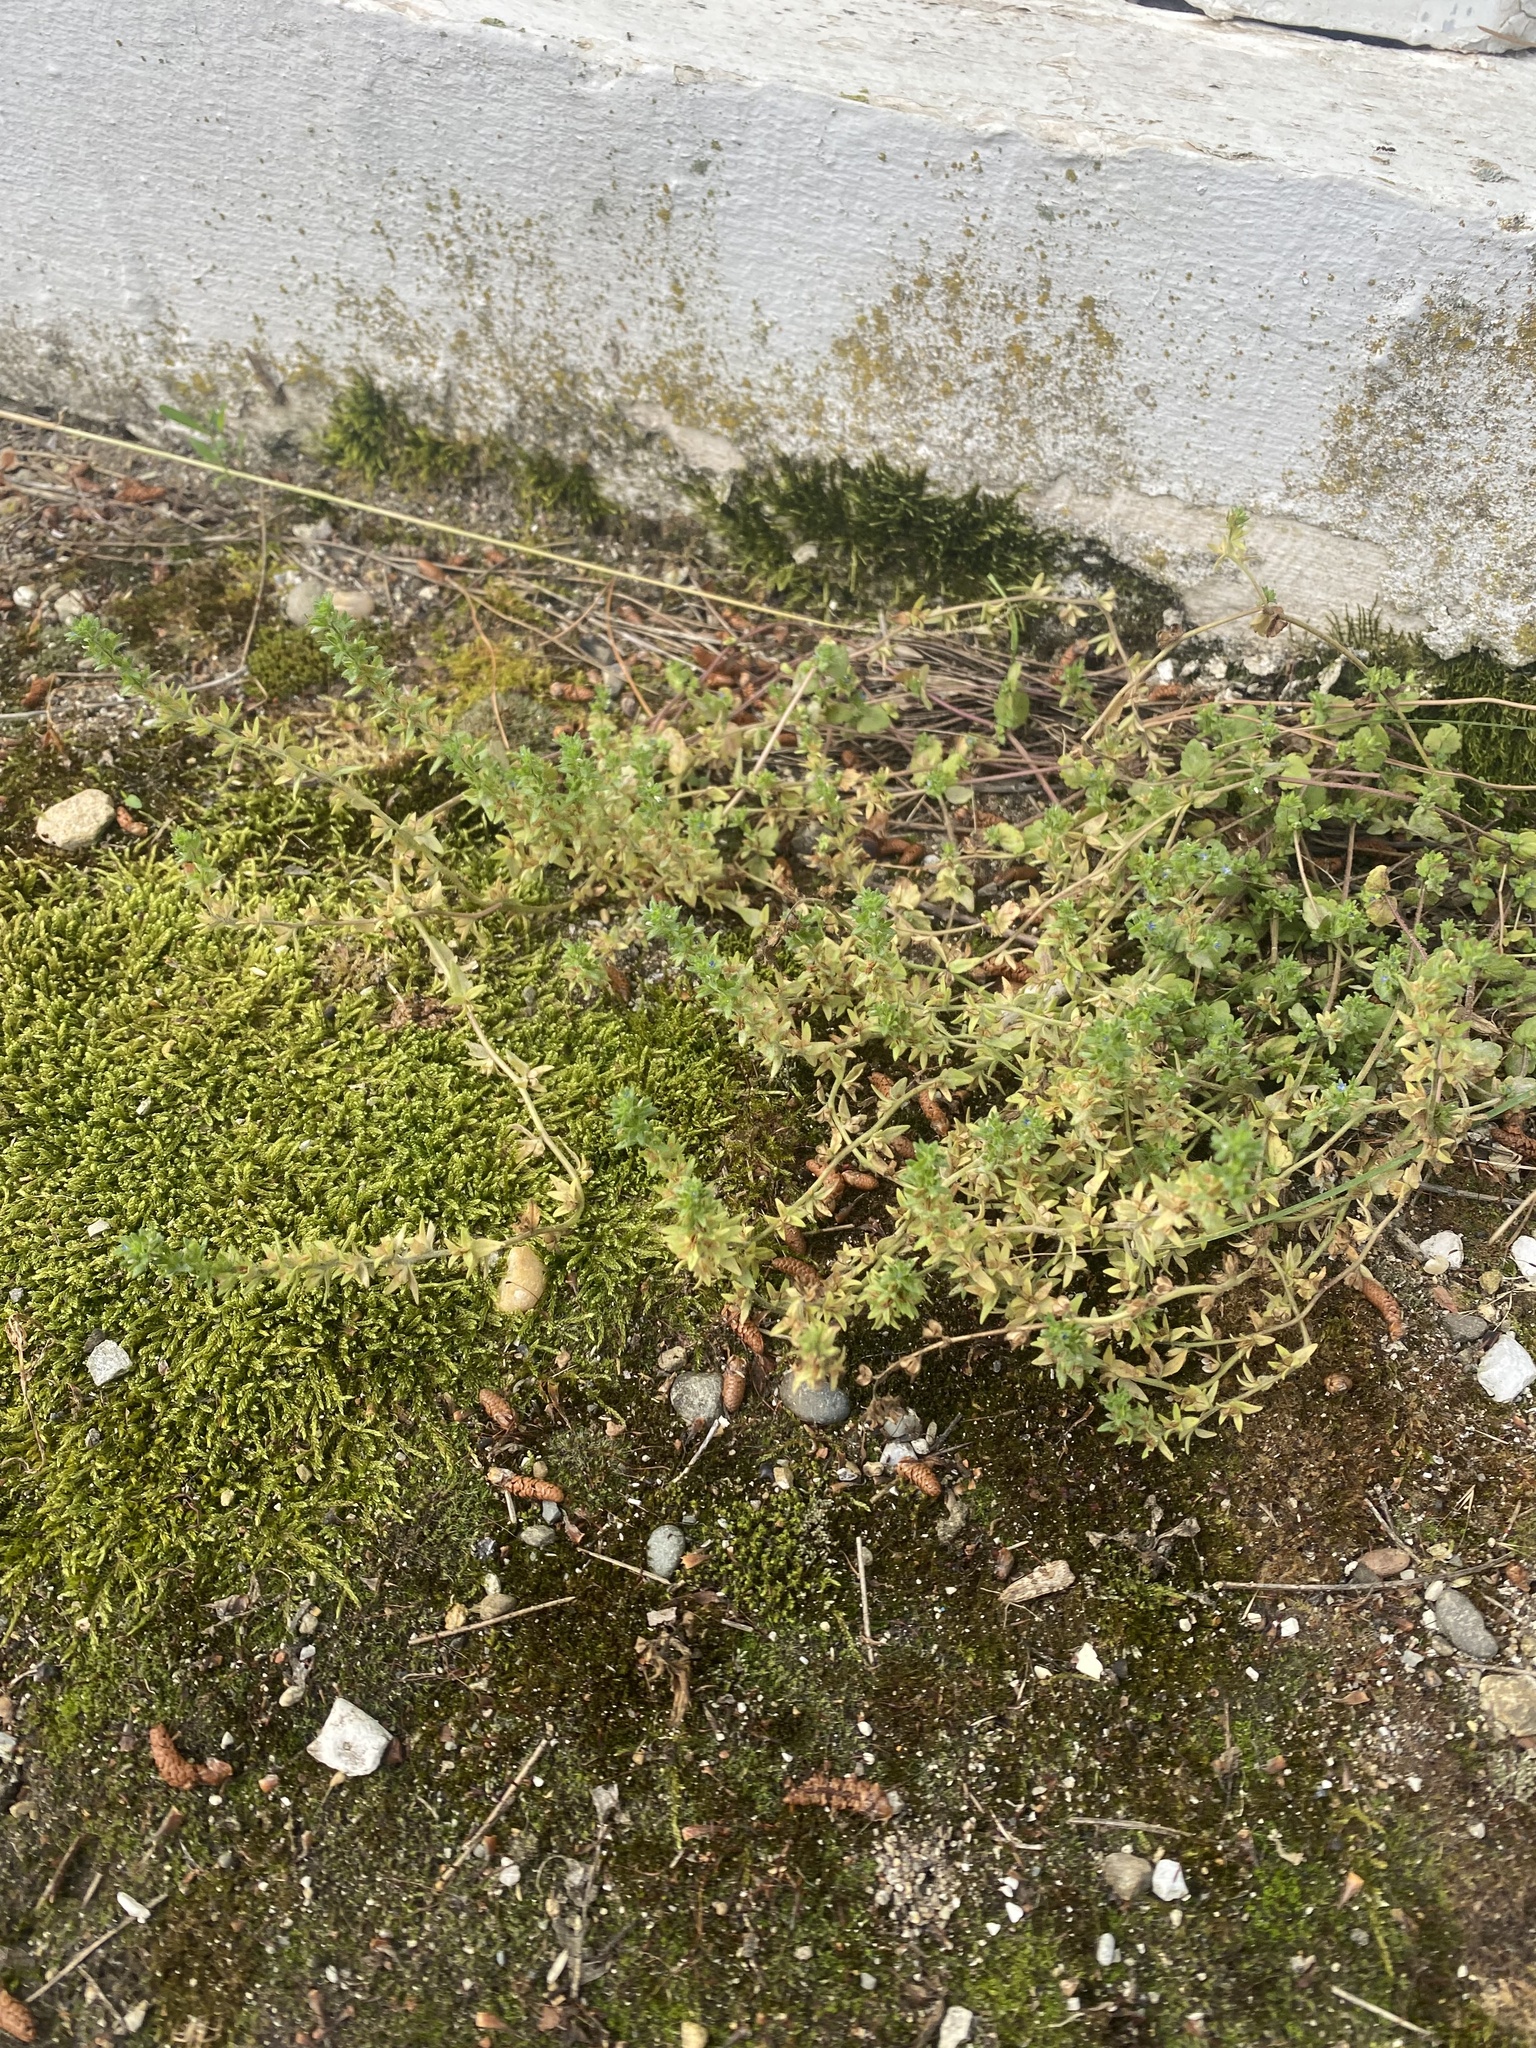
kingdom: Plantae
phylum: Tracheophyta
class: Magnoliopsida
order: Lamiales
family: Plantaginaceae
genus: Veronica
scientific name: Veronica arvensis
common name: Corn speedwell
